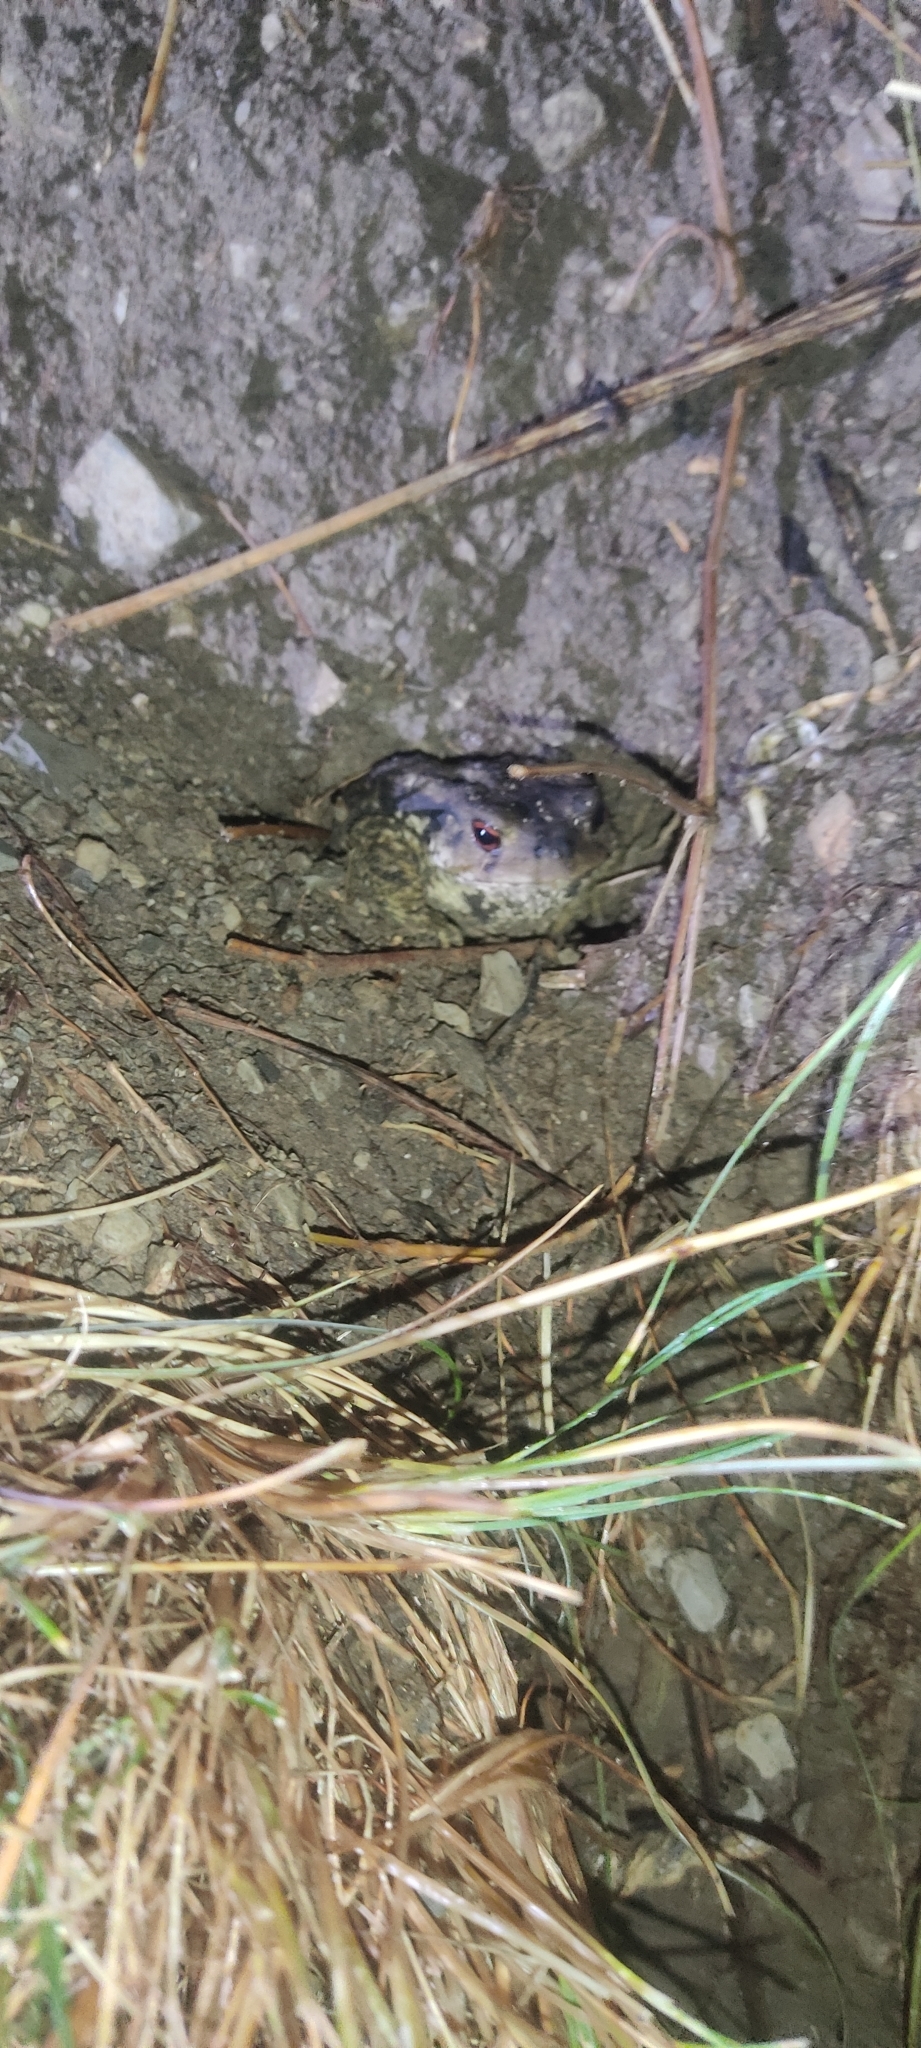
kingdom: Animalia
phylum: Chordata
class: Amphibia
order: Anura
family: Bufonidae
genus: Bufo
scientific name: Bufo spinosus
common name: Western common toad
